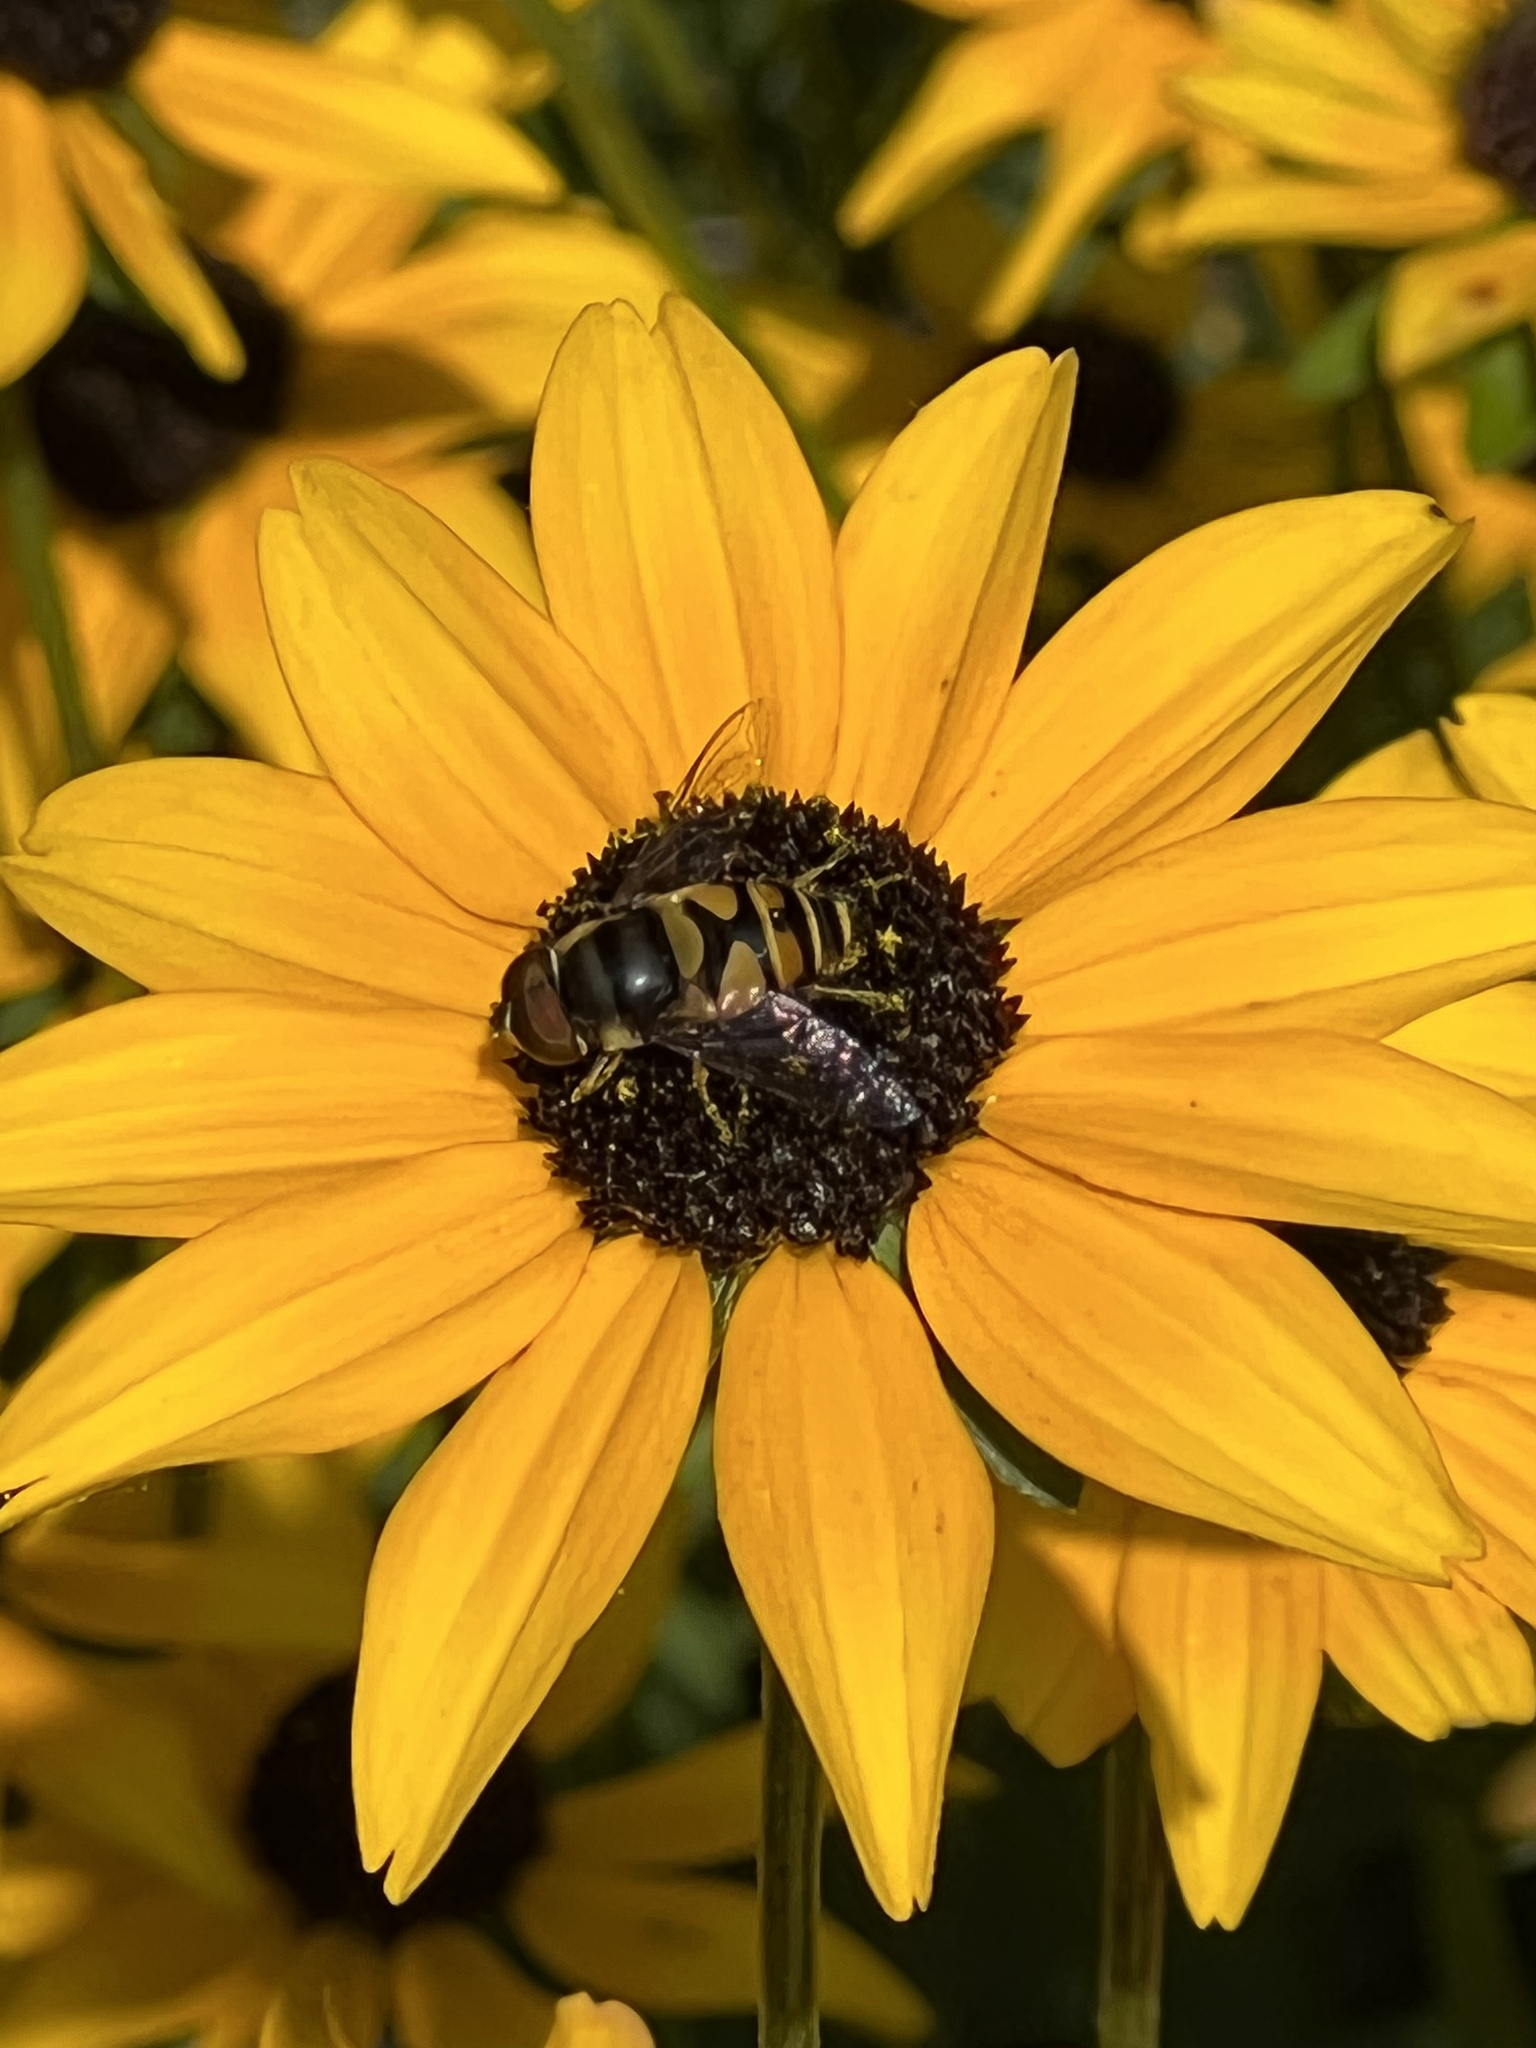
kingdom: Animalia
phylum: Arthropoda
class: Insecta
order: Diptera
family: Syrphidae
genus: Eristalis
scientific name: Eristalis transversa
